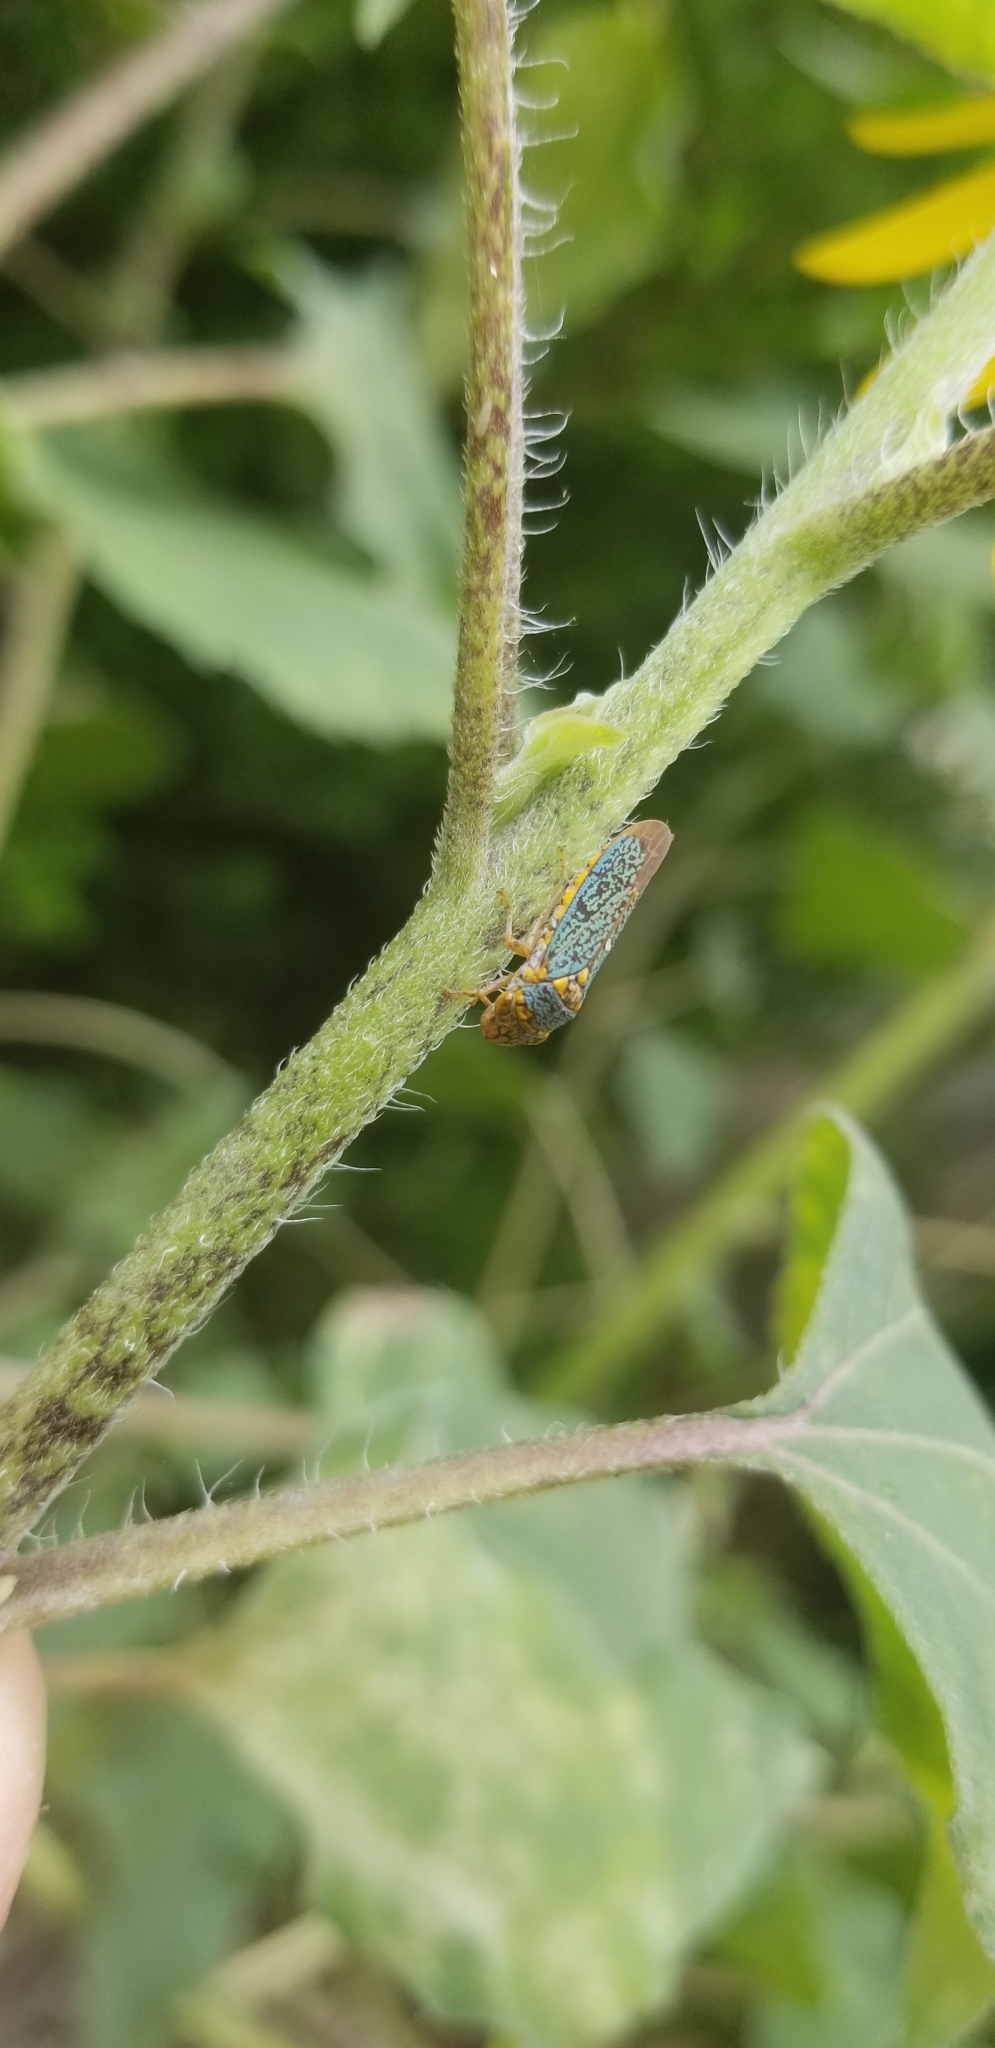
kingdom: Animalia
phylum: Arthropoda
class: Insecta
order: Hemiptera
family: Cicadellidae
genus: Oncometopia
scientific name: Oncometopia orbona
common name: Broad-headed sharpshooter
